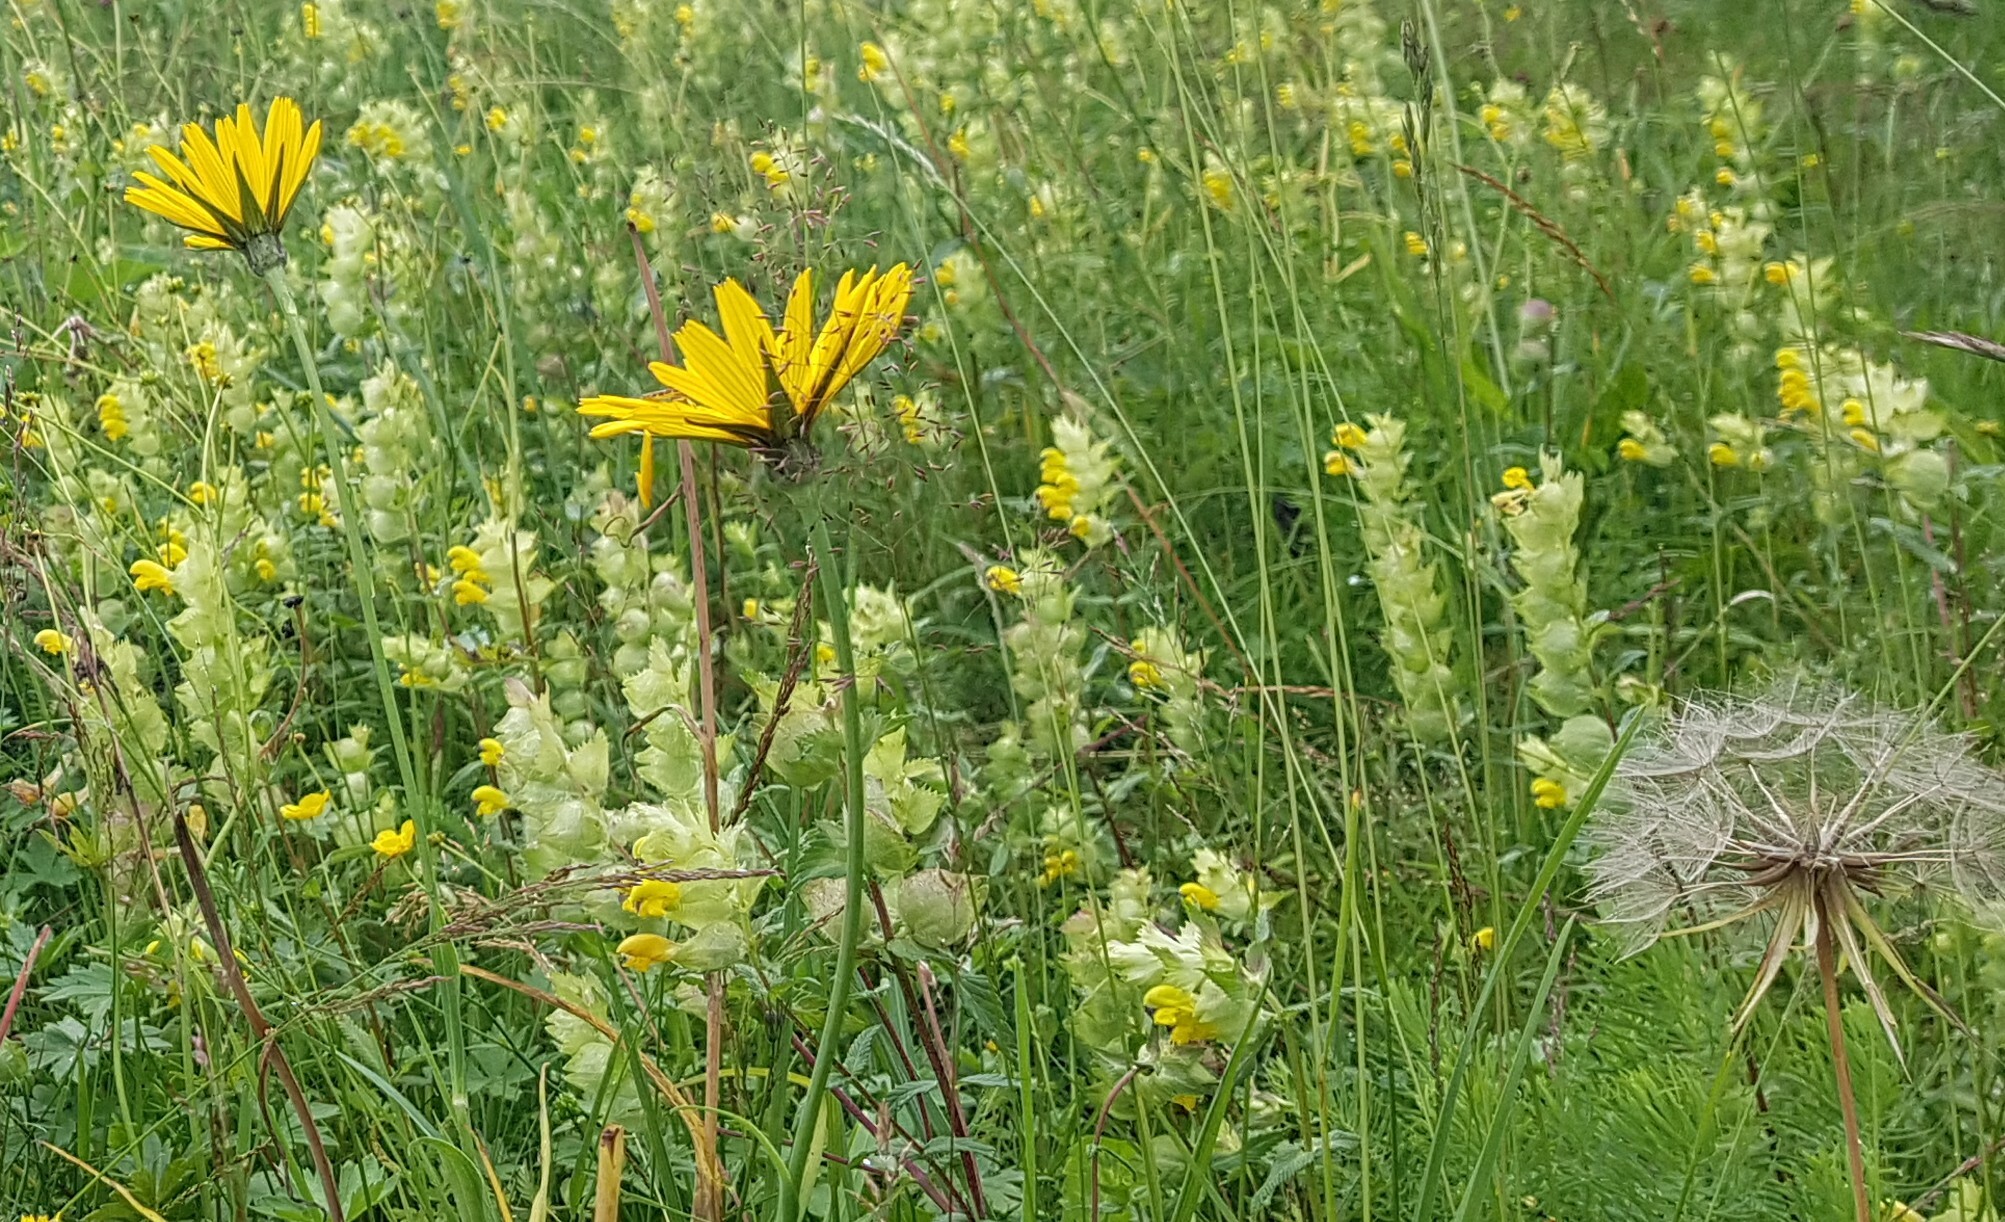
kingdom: Plantae
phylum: Tracheophyta
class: Magnoliopsida
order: Asterales
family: Asteraceae
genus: Tragopogon
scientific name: Tragopogon pratensis
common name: Goat's-beard
